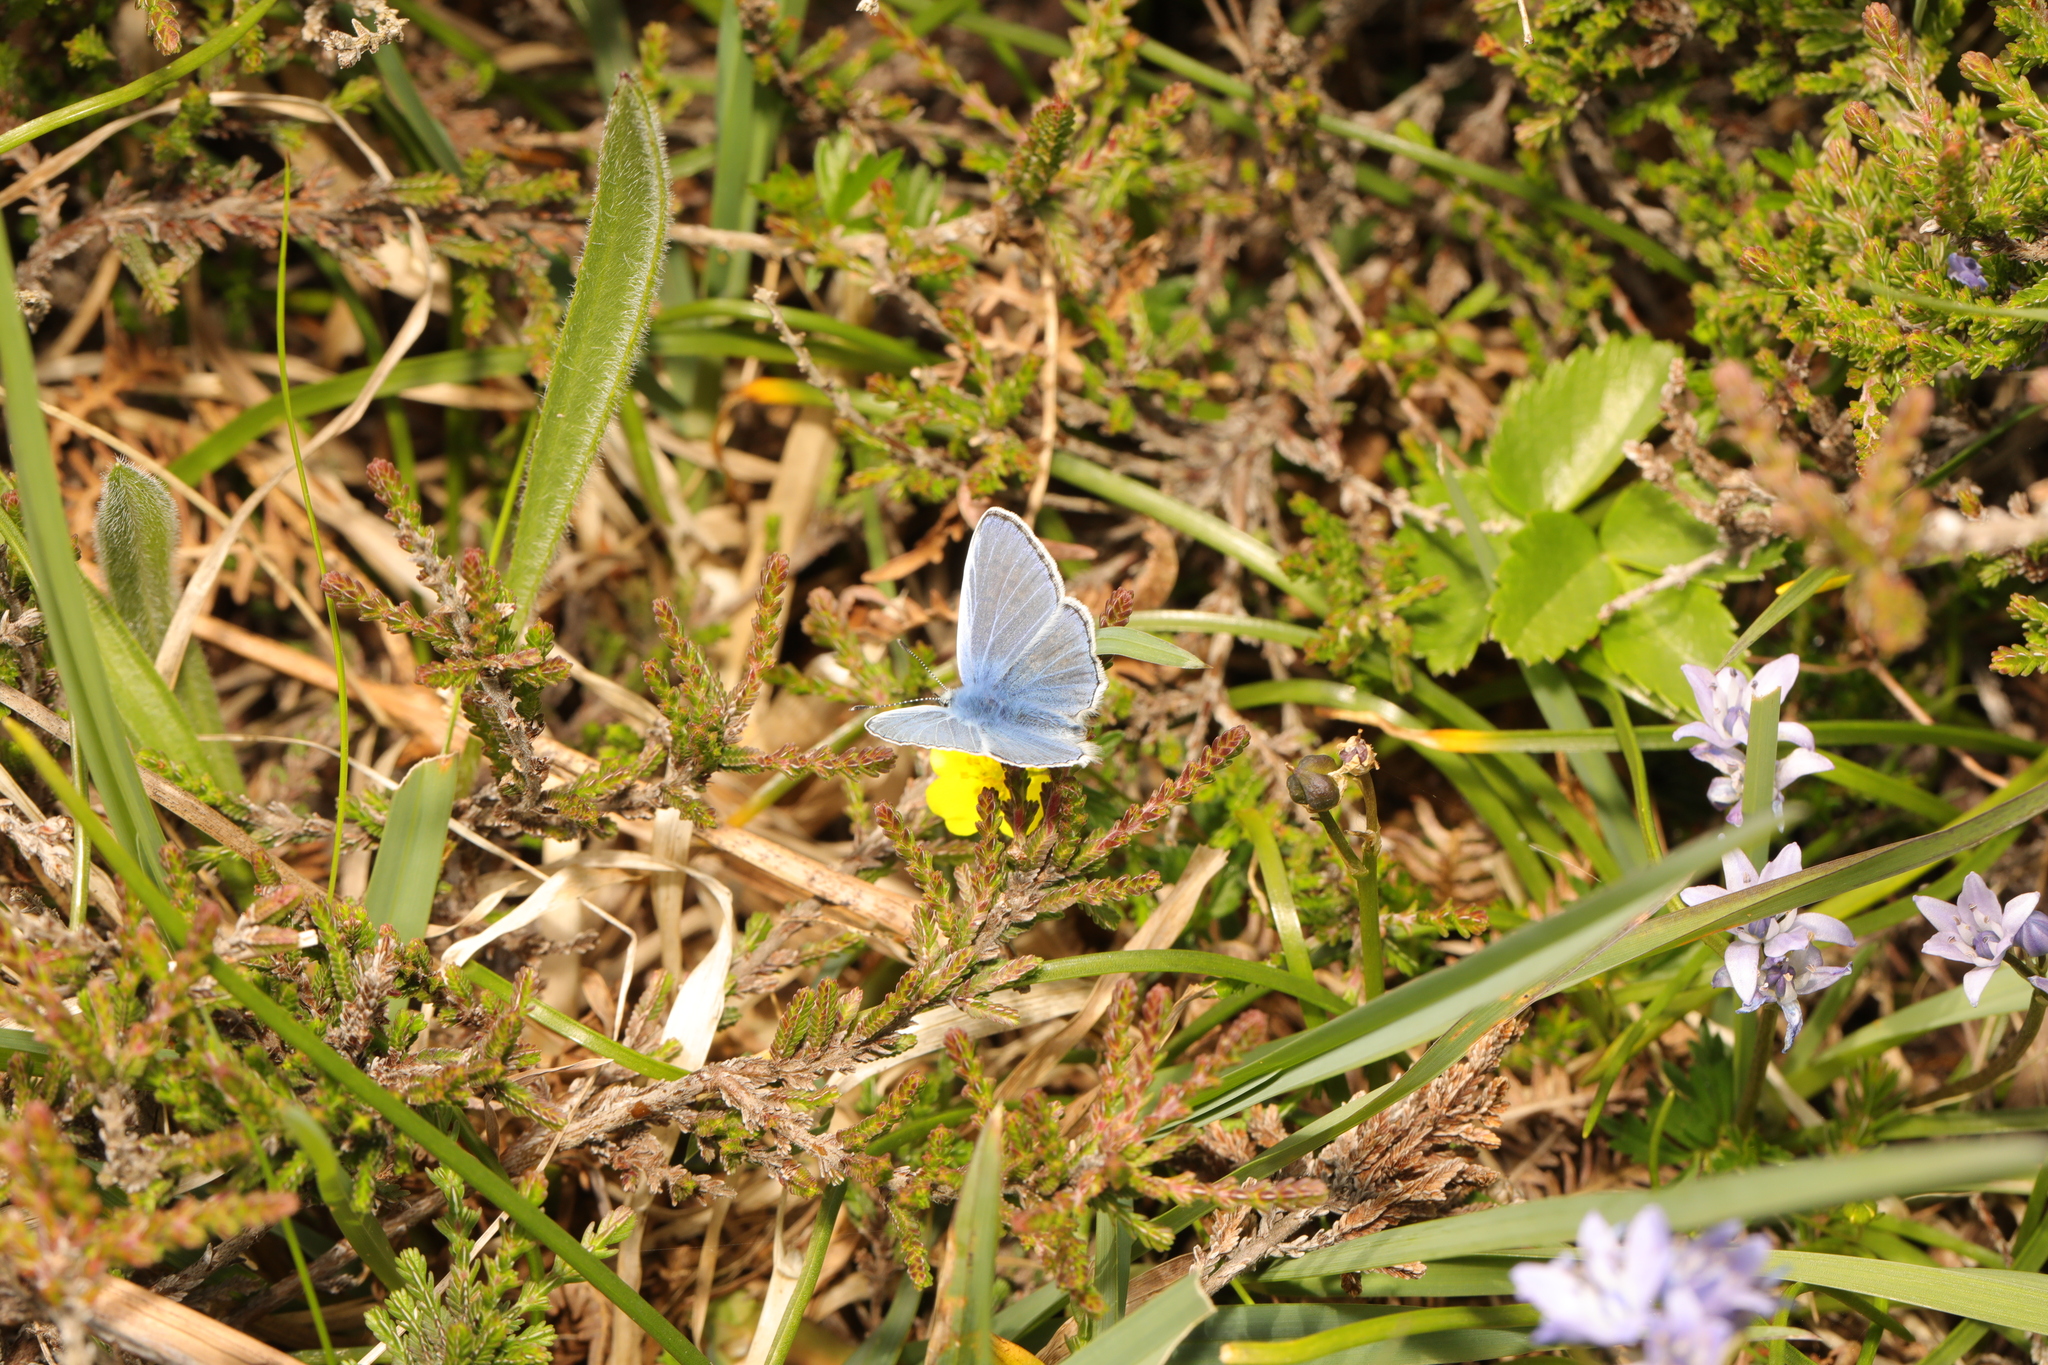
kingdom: Animalia
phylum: Arthropoda
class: Insecta
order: Lepidoptera
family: Lycaenidae
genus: Polyommatus
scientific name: Polyommatus icarus
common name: Common blue
